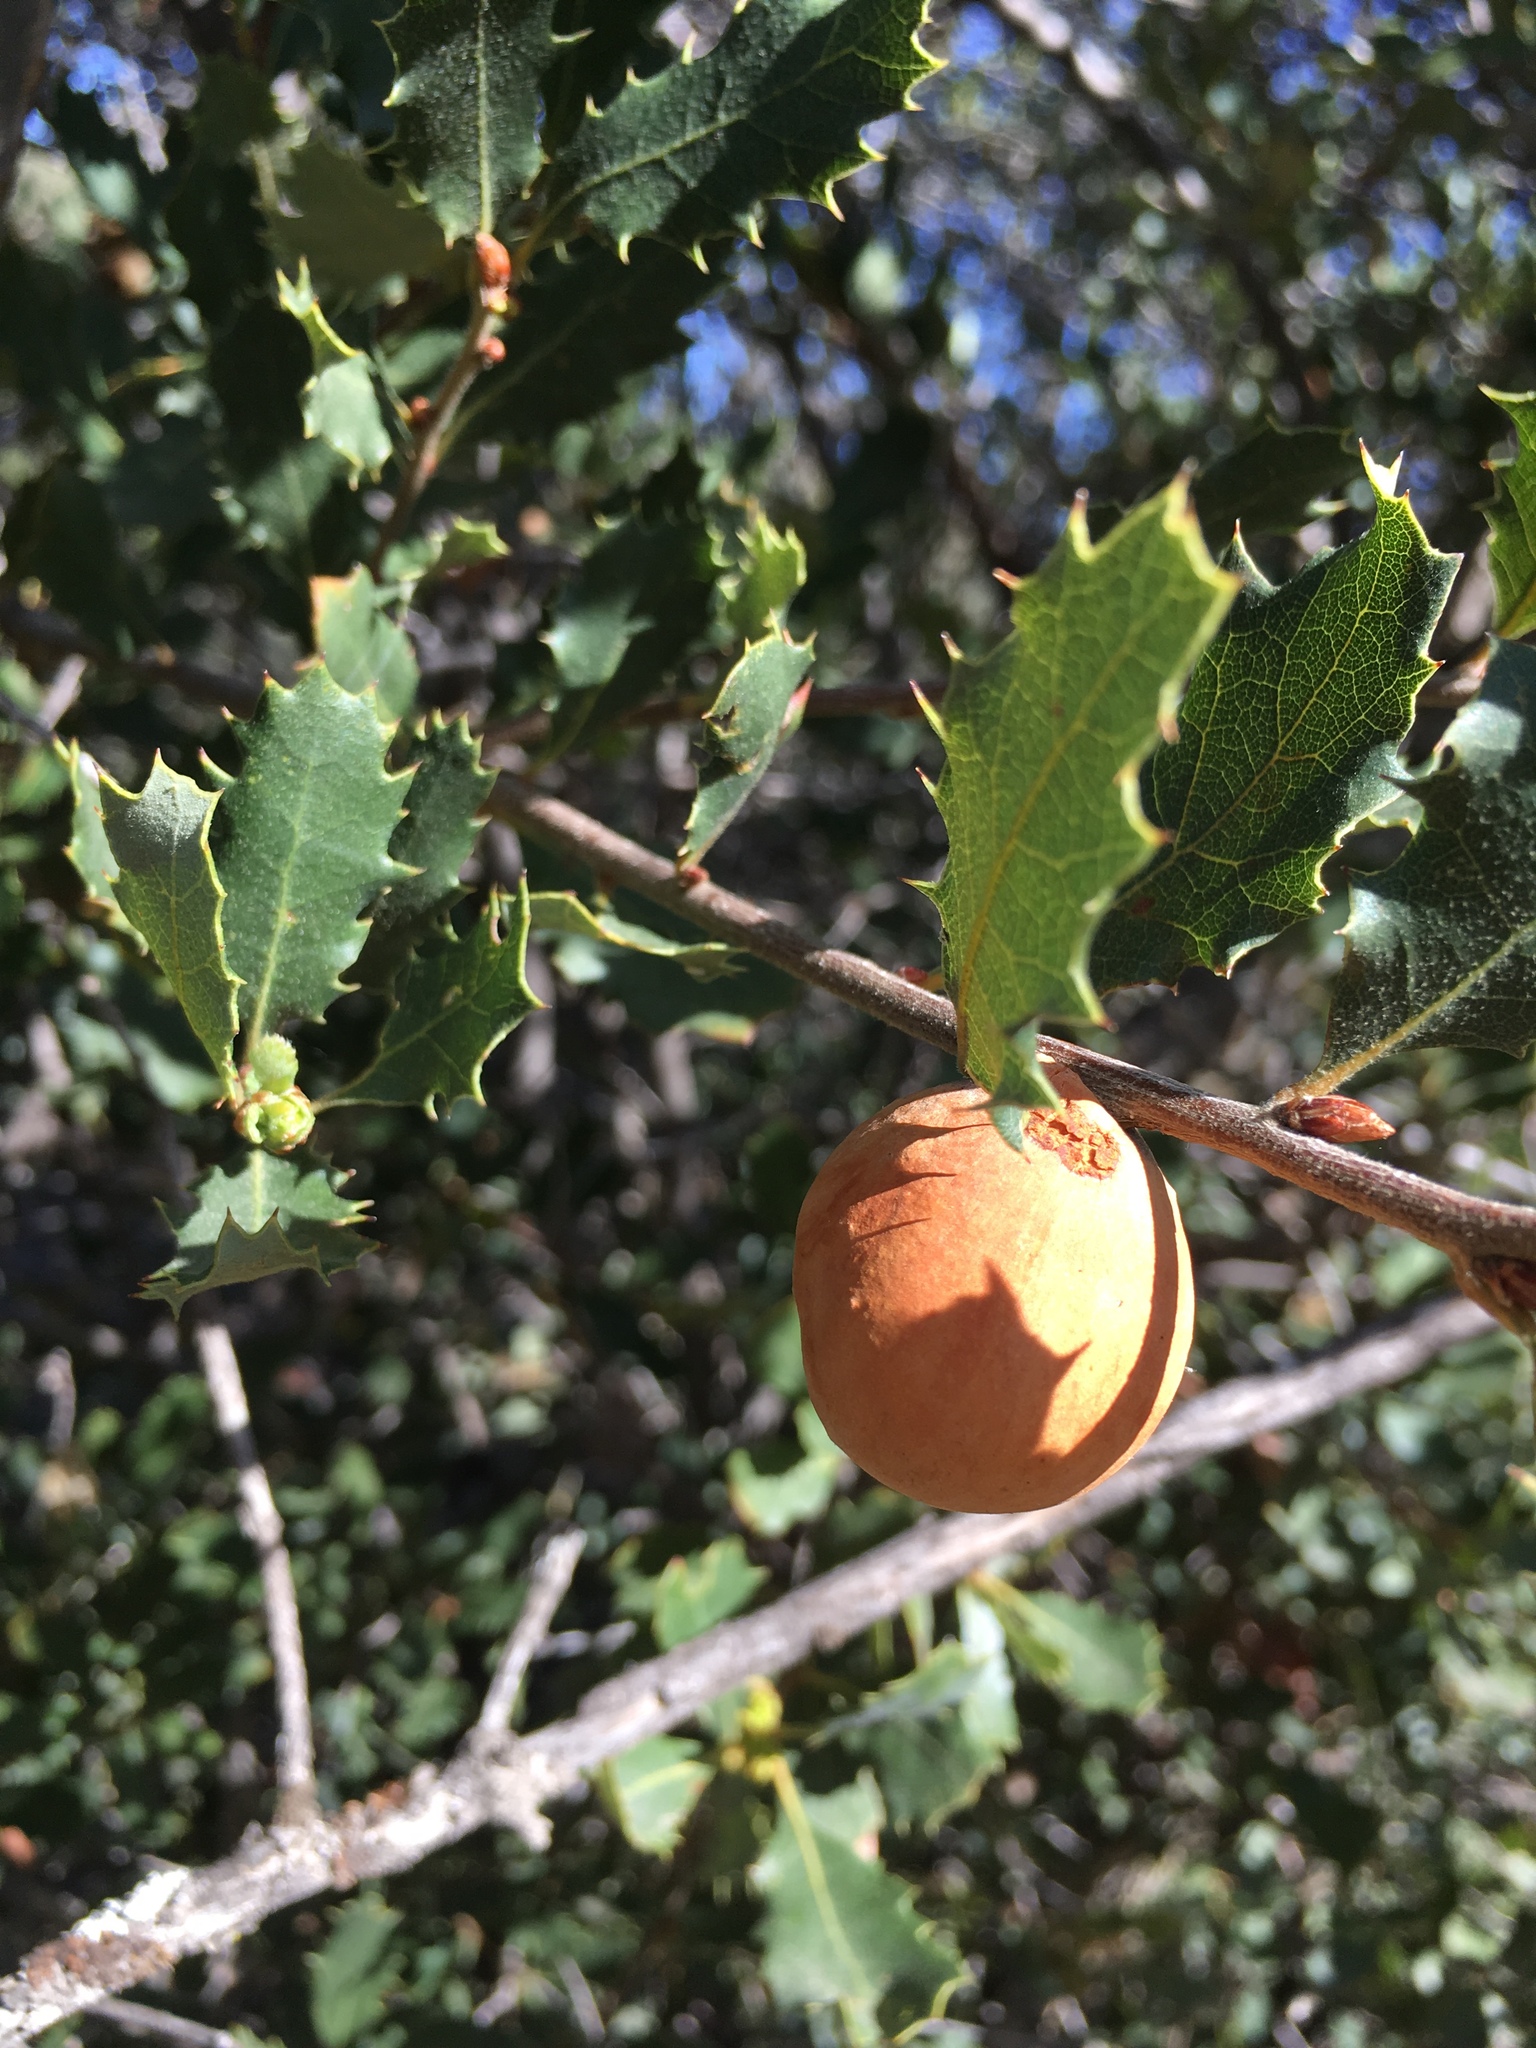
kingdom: Animalia
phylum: Arthropoda
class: Insecta
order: Hymenoptera
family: Cynipidae
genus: Andricus
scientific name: Andricus quercuscalifornicus
